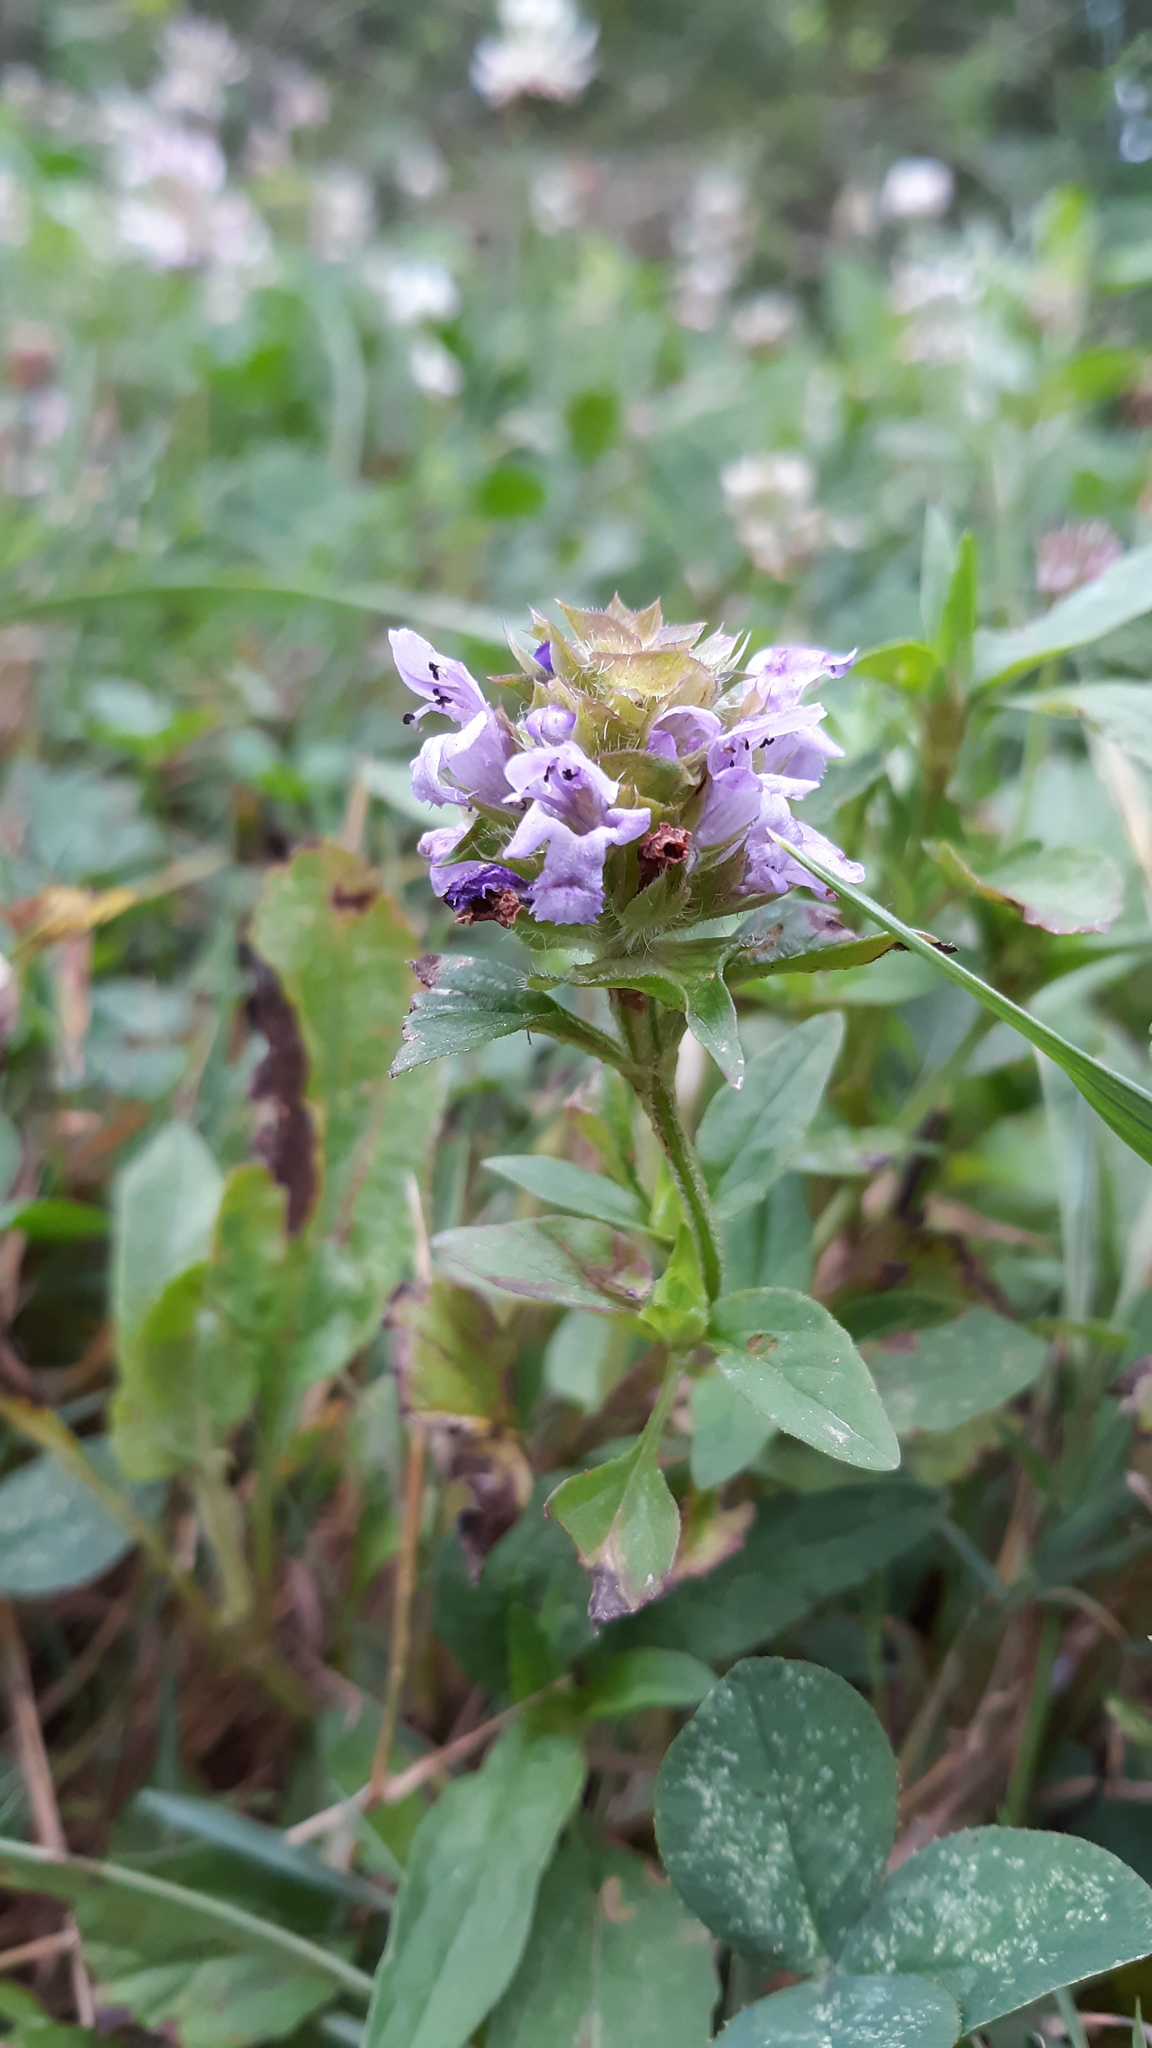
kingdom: Plantae
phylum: Tracheophyta
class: Magnoliopsida
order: Lamiales
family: Lamiaceae
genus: Prunella
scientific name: Prunella vulgaris
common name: Heal-all
